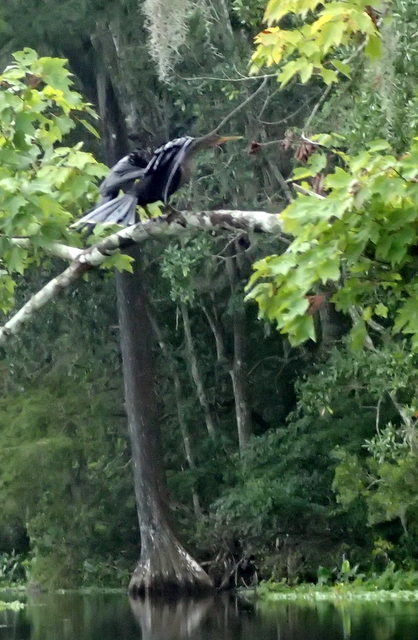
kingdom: Animalia
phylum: Chordata
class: Aves
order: Suliformes
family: Anhingidae
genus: Anhinga
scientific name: Anhinga anhinga
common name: Anhinga
